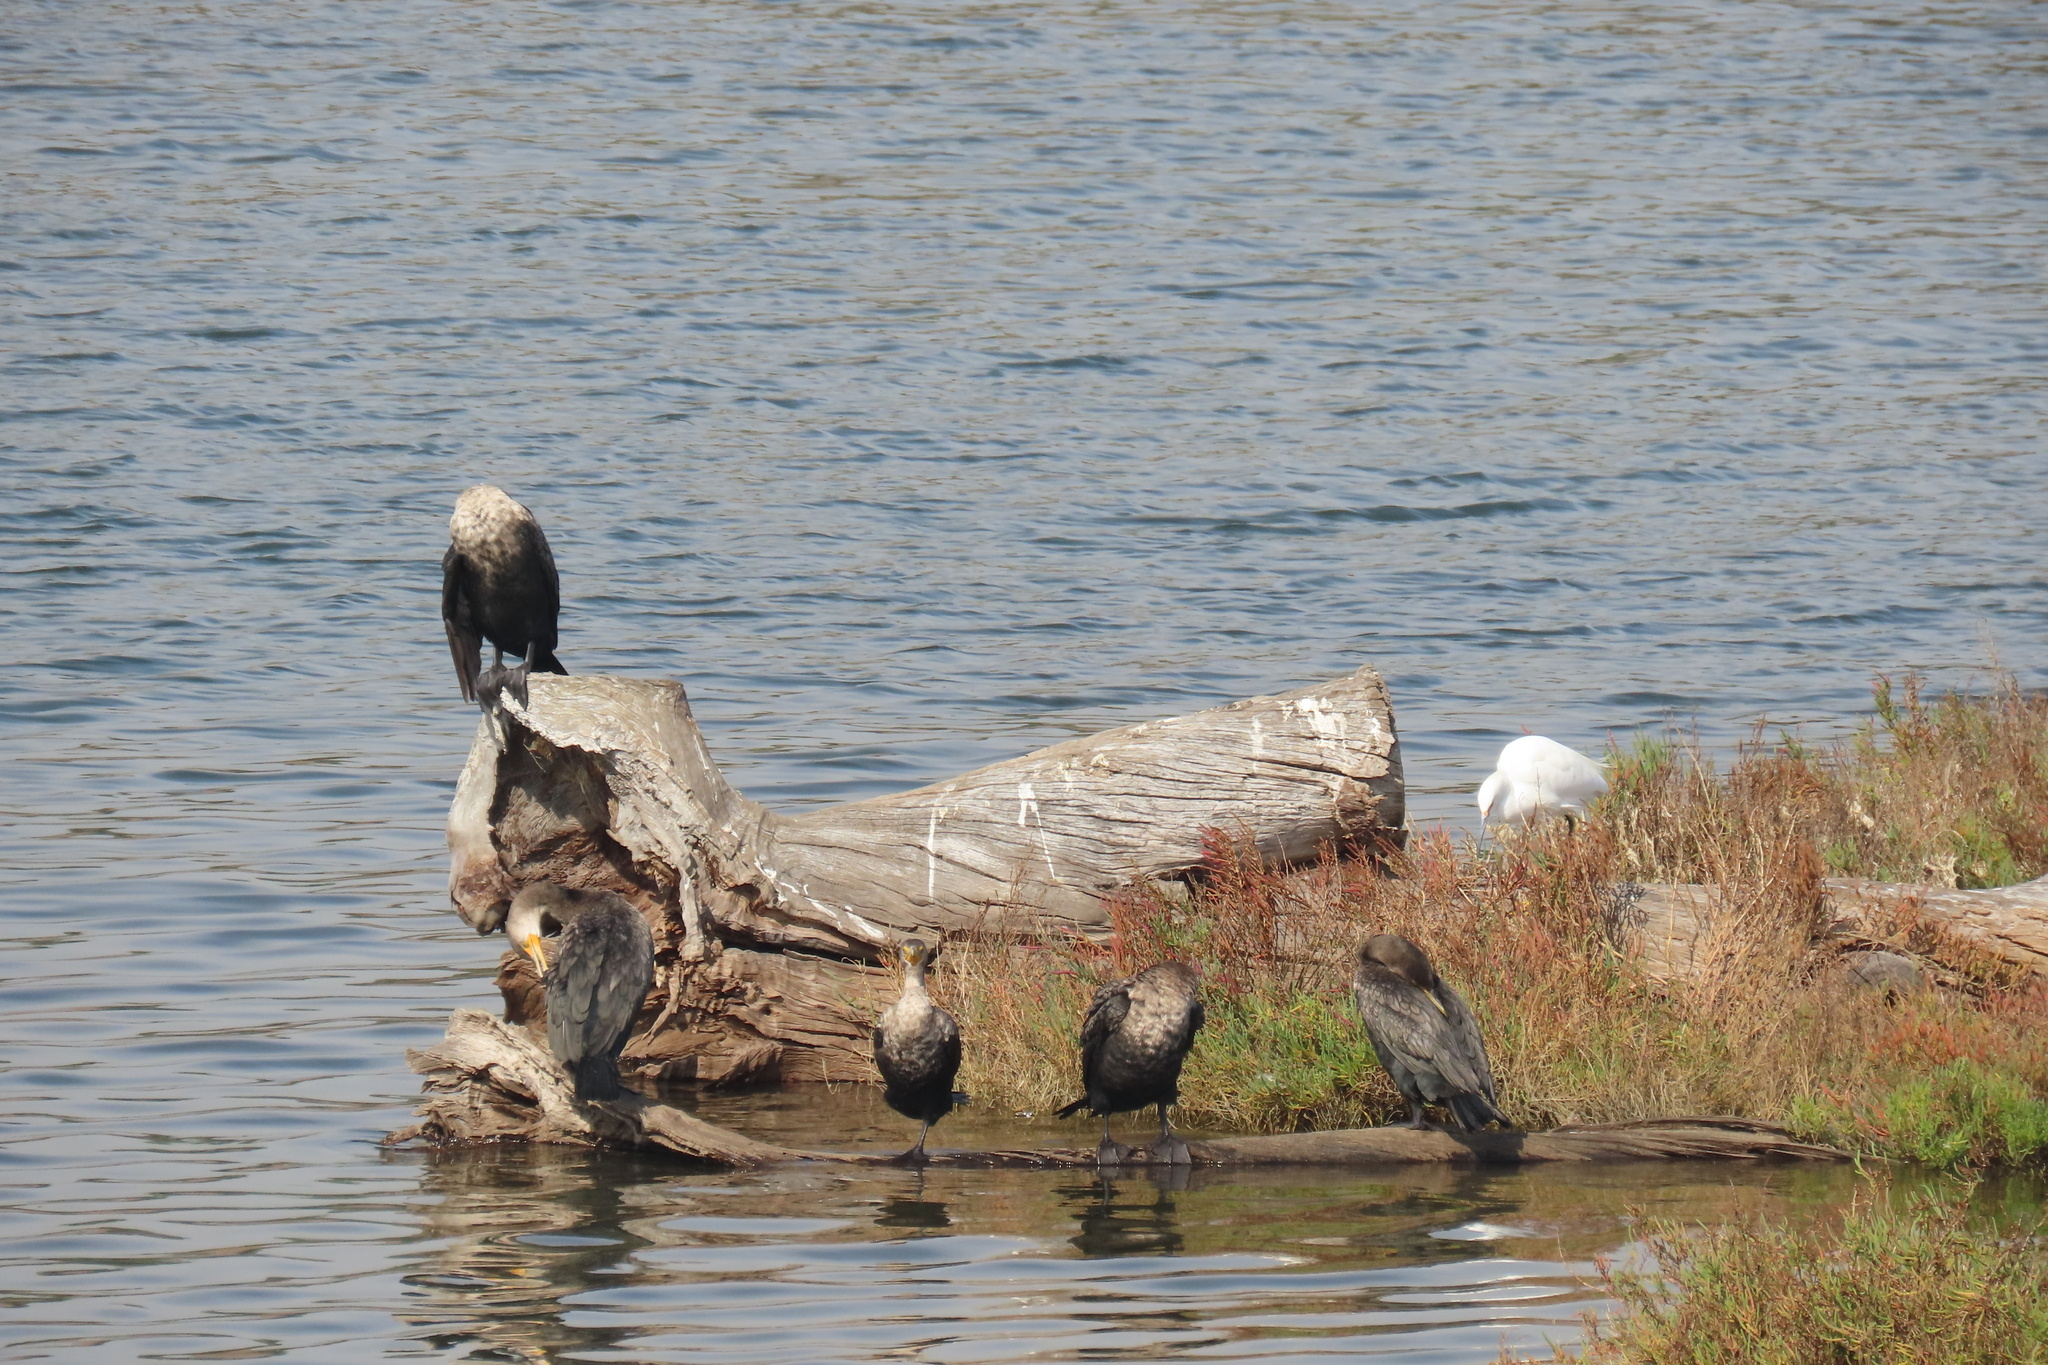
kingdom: Animalia
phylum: Chordata
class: Aves
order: Suliformes
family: Phalacrocoracidae
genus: Phalacrocorax
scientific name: Phalacrocorax auritus
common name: Double-crested cormorant
